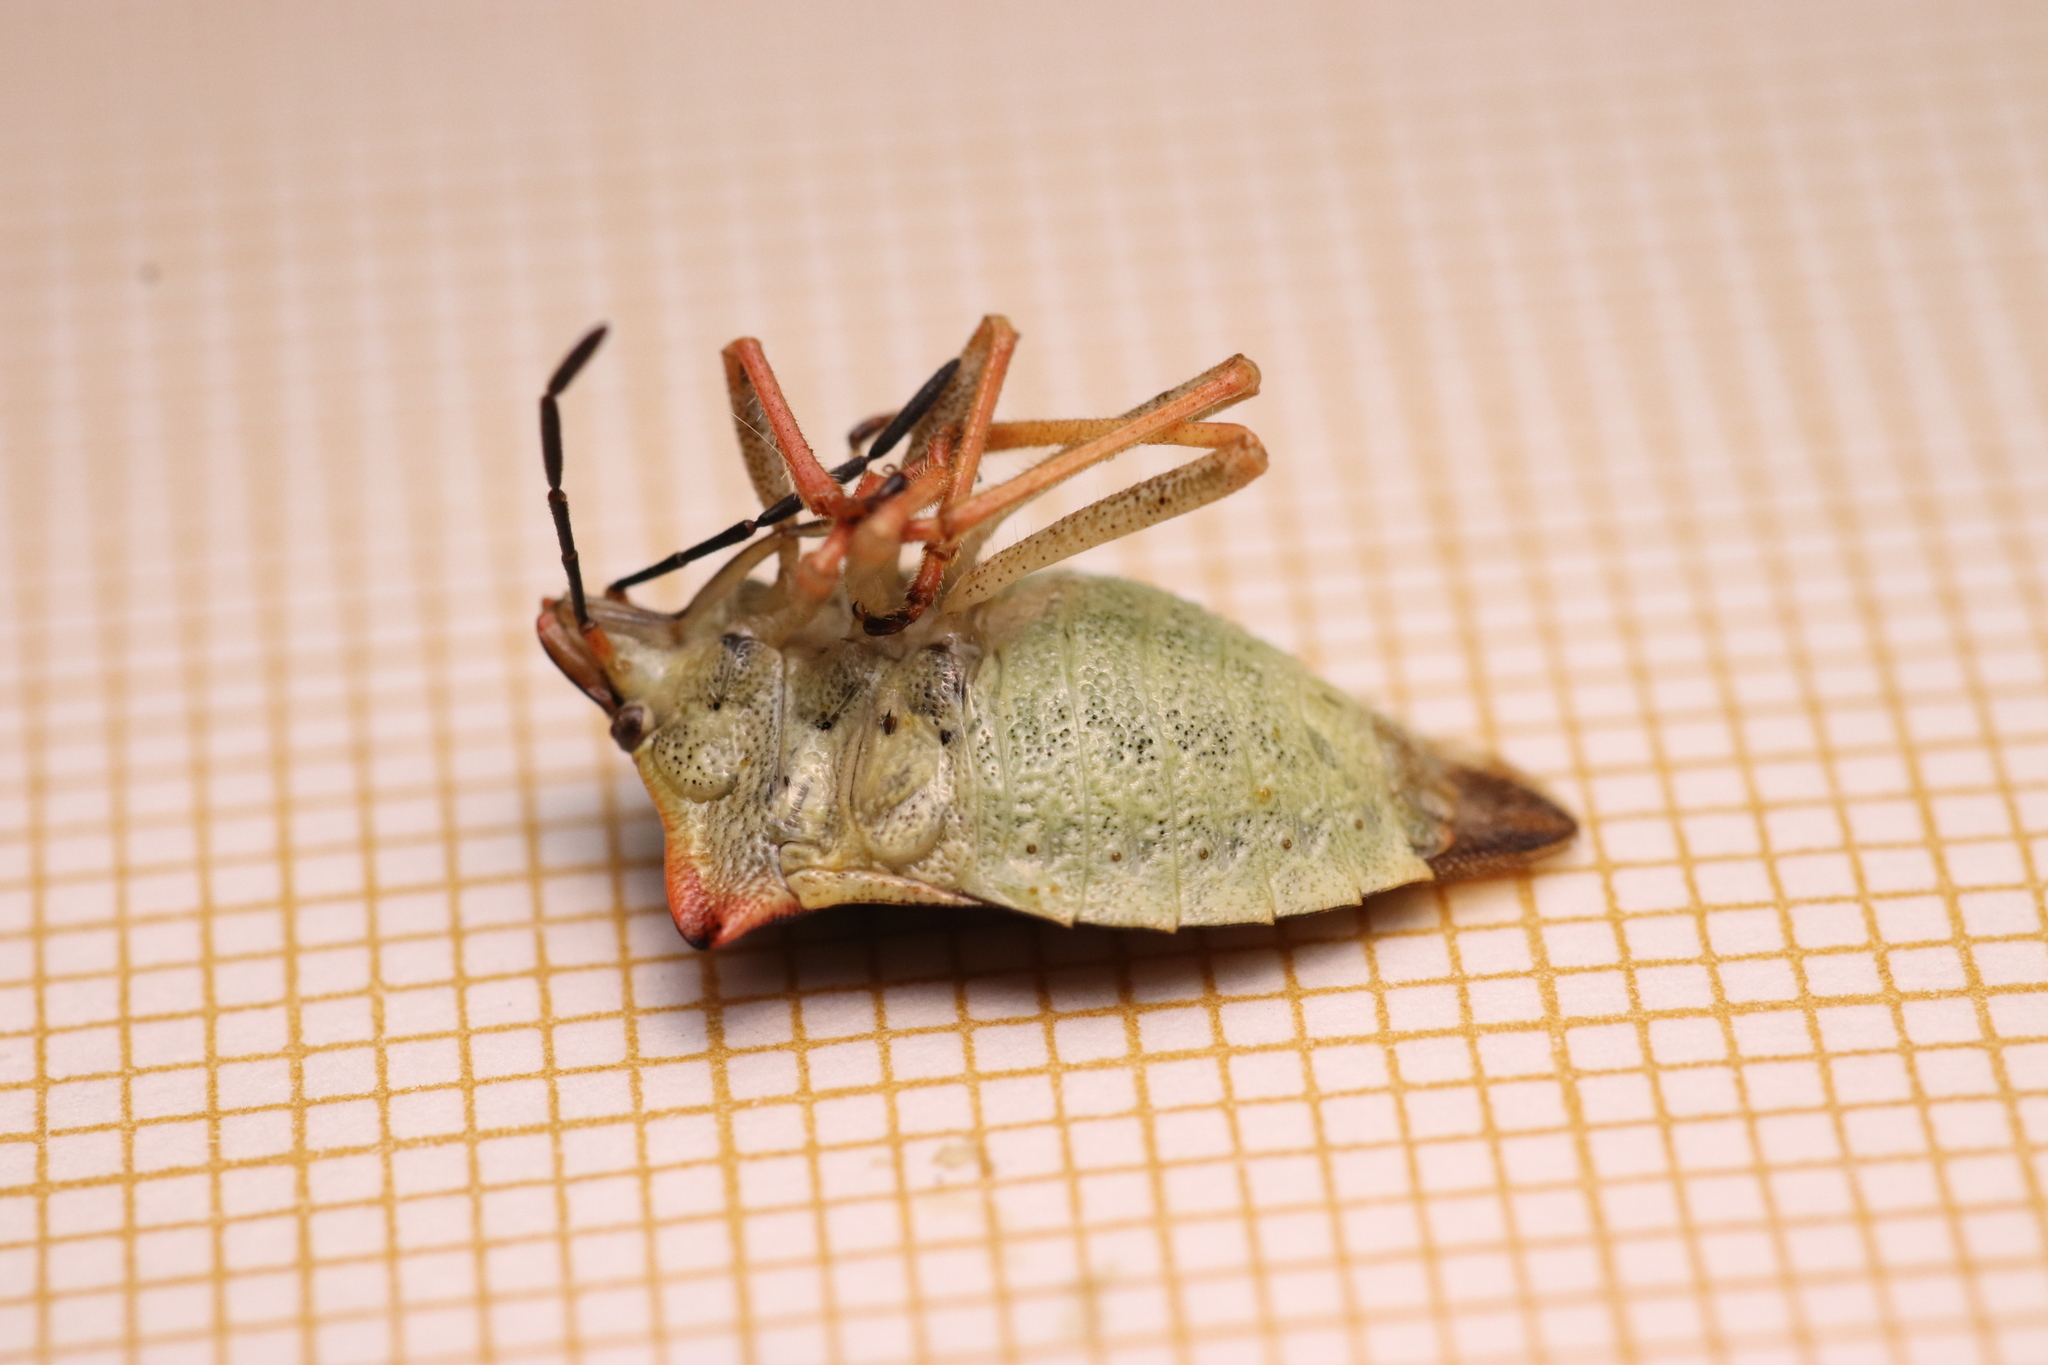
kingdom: Animalia
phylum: Arthropoda
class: Insecta
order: Hemiptera
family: Pentatomidae
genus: Carpocoris
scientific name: Carpocoris mediterraneus
